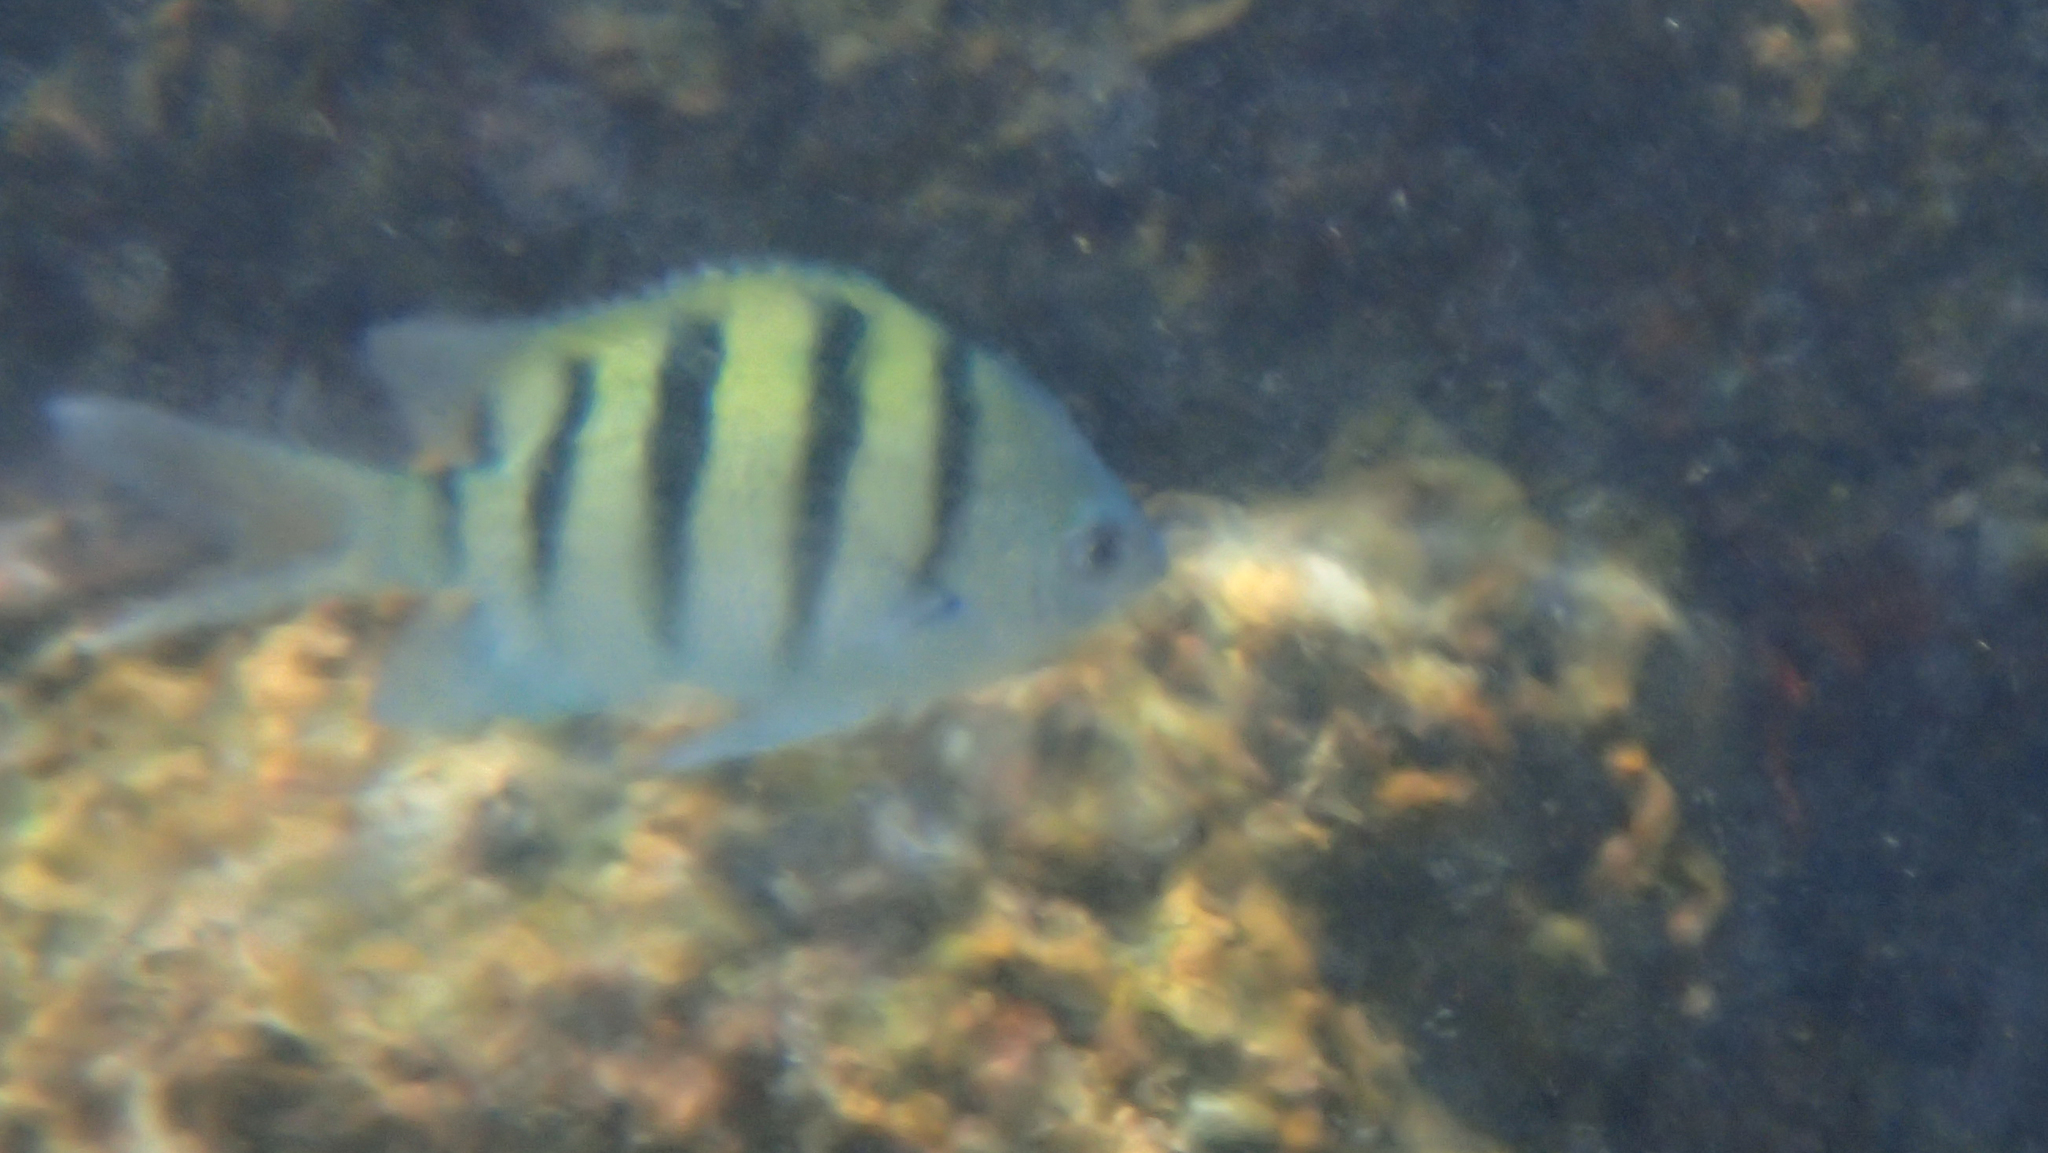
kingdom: Animalia
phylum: Chordata
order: Perciformes
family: Pomacentridae
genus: Abudefduf
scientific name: Abudefduf abdominalis
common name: Green damselfish
